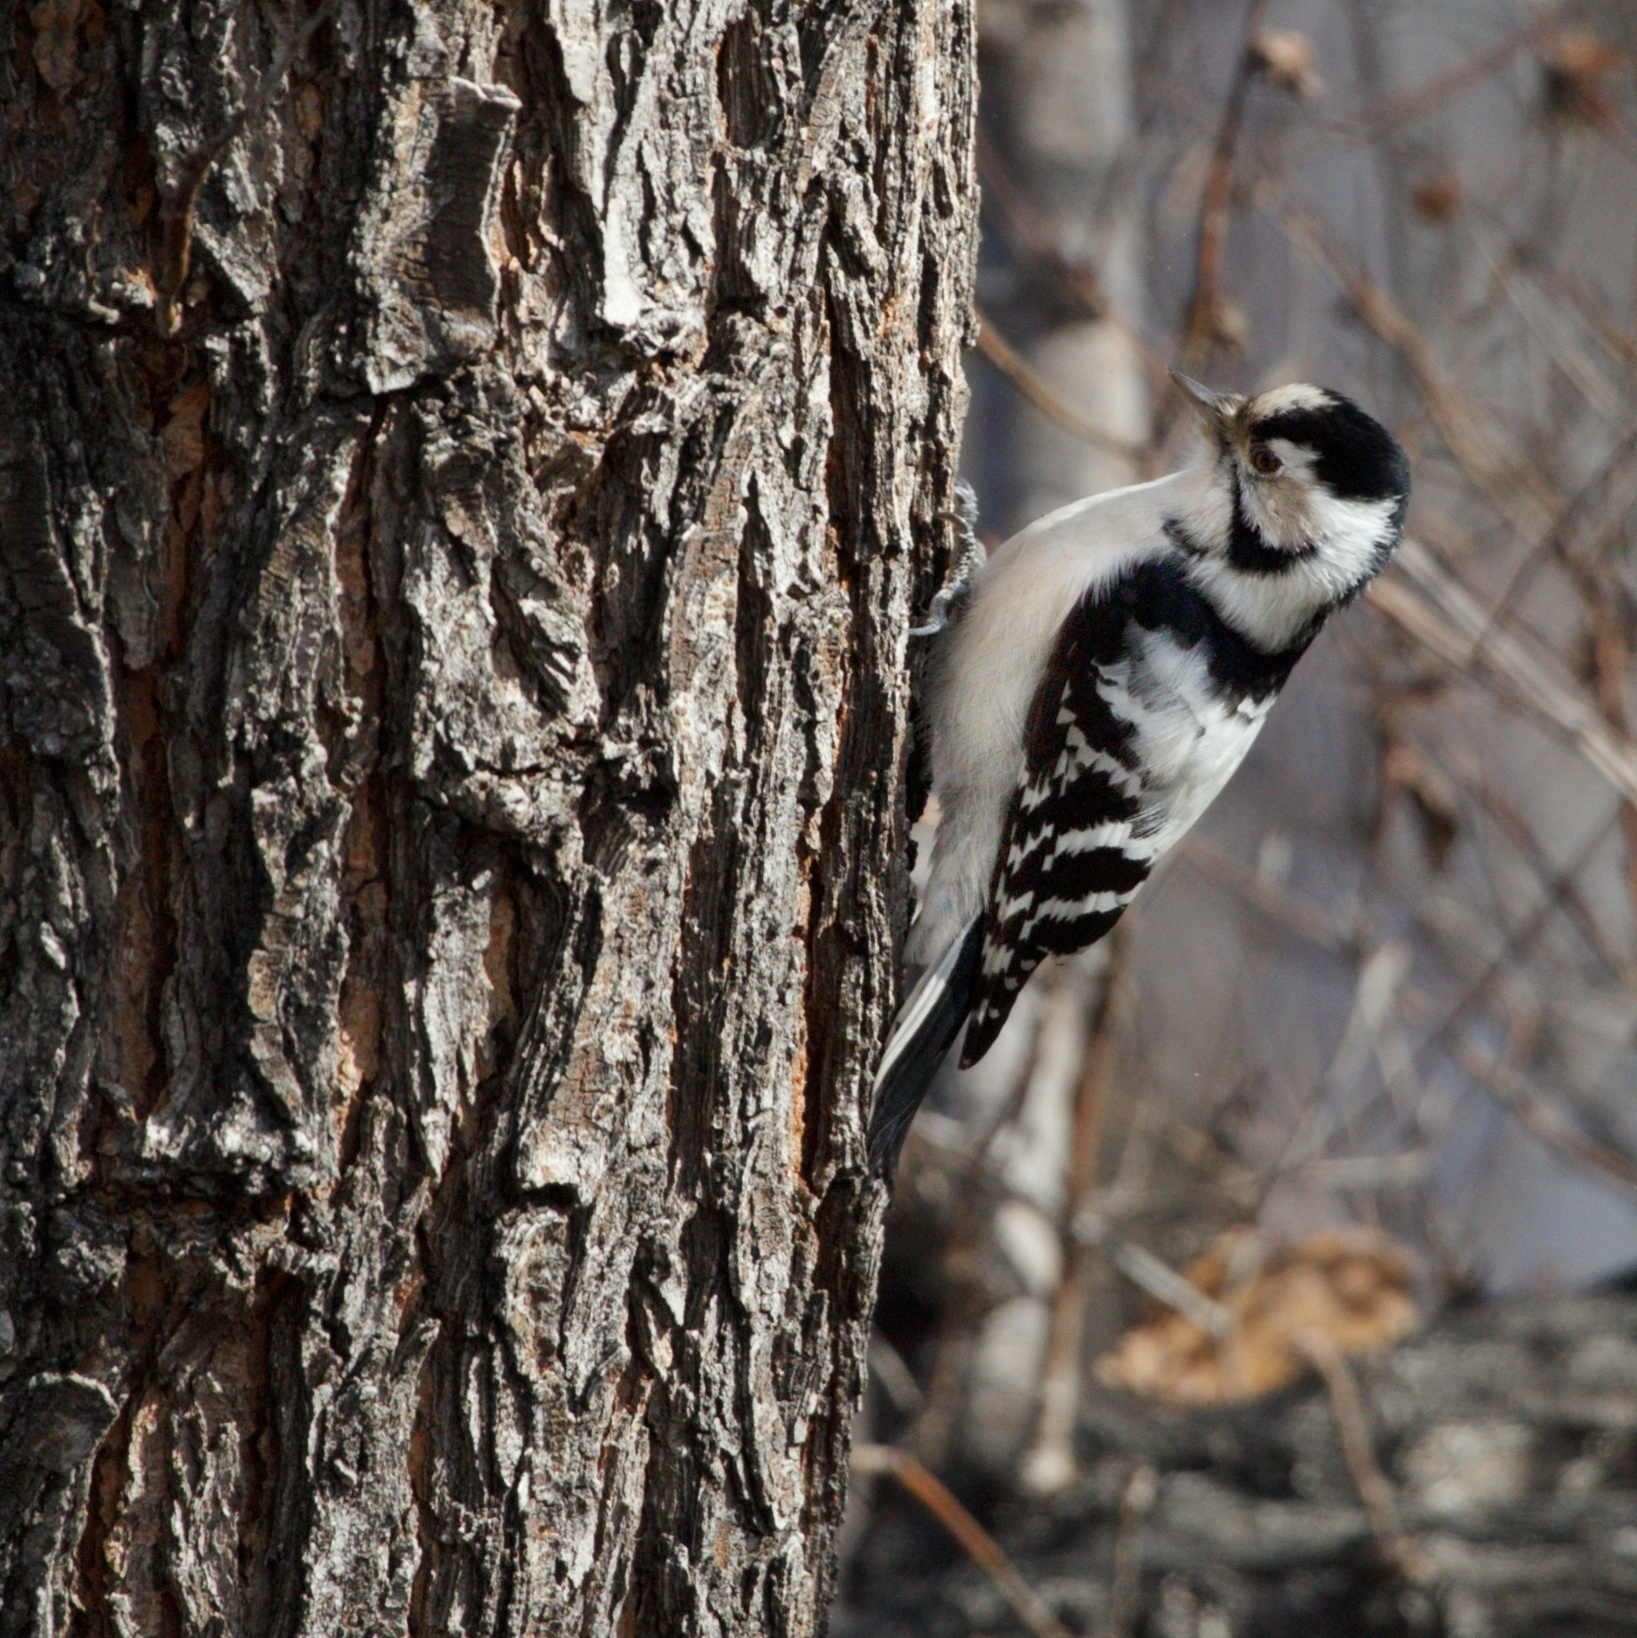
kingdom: Animalia
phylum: Chordata
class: Aves
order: Piciformes
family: Picidae
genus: Dryobates
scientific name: Dryobates minor
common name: Lesser spotted woodpecker
